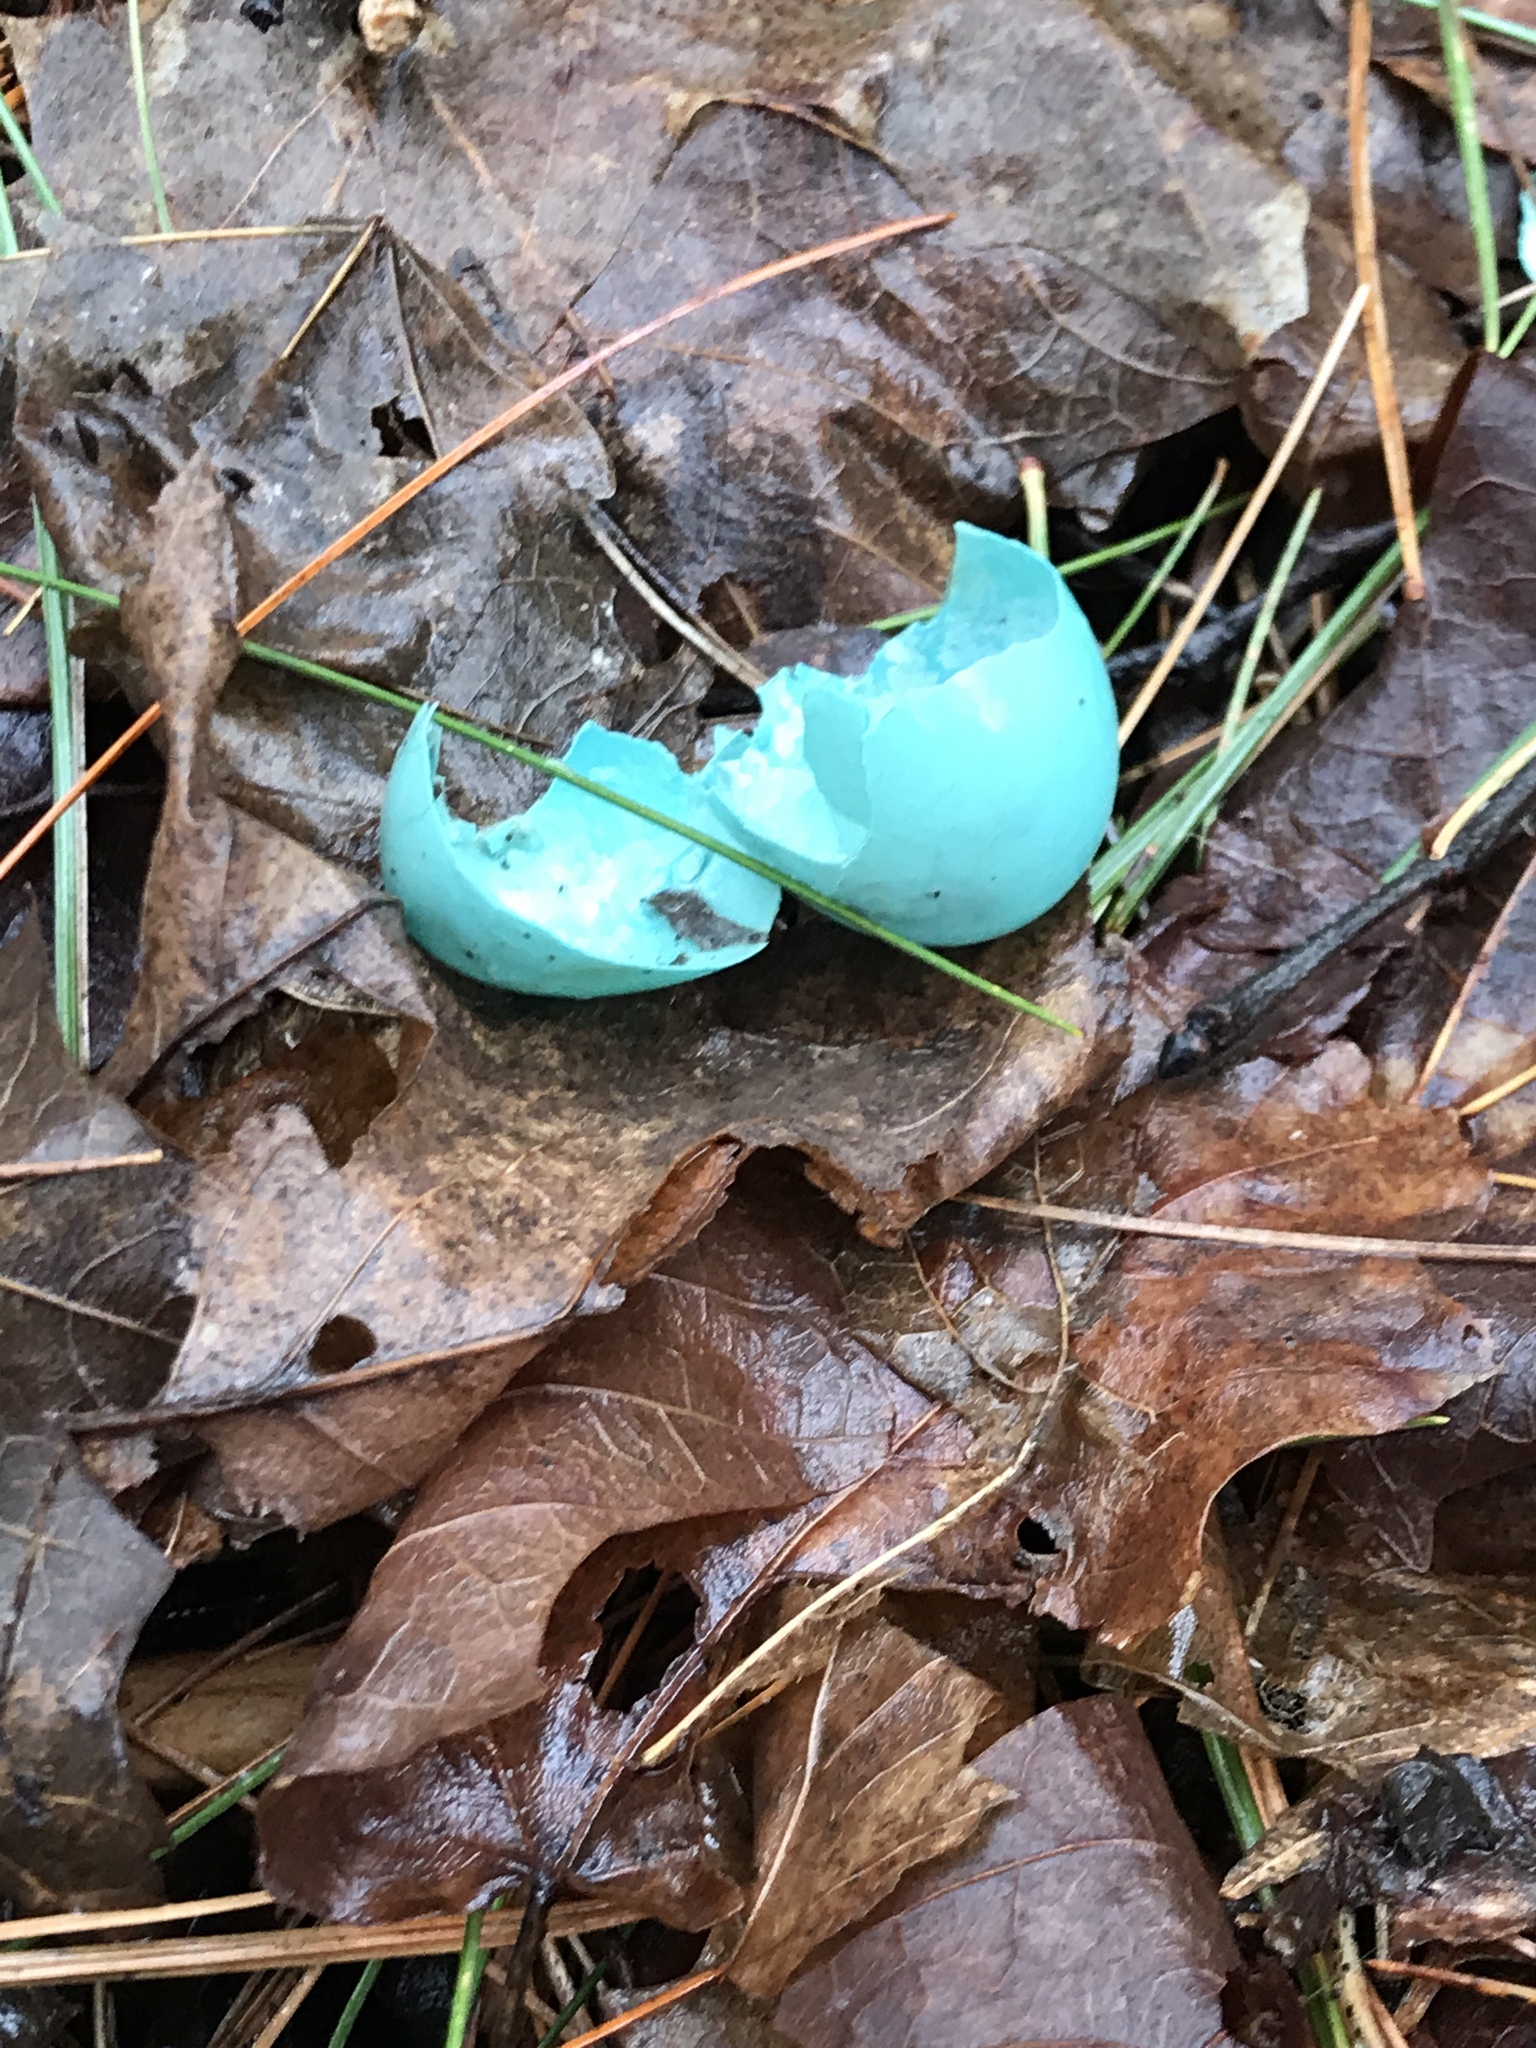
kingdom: Animalia
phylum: Chordata
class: Aves
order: Passeriformes
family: Turdidae
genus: Turdus
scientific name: Turdus migratorius
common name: American robin
